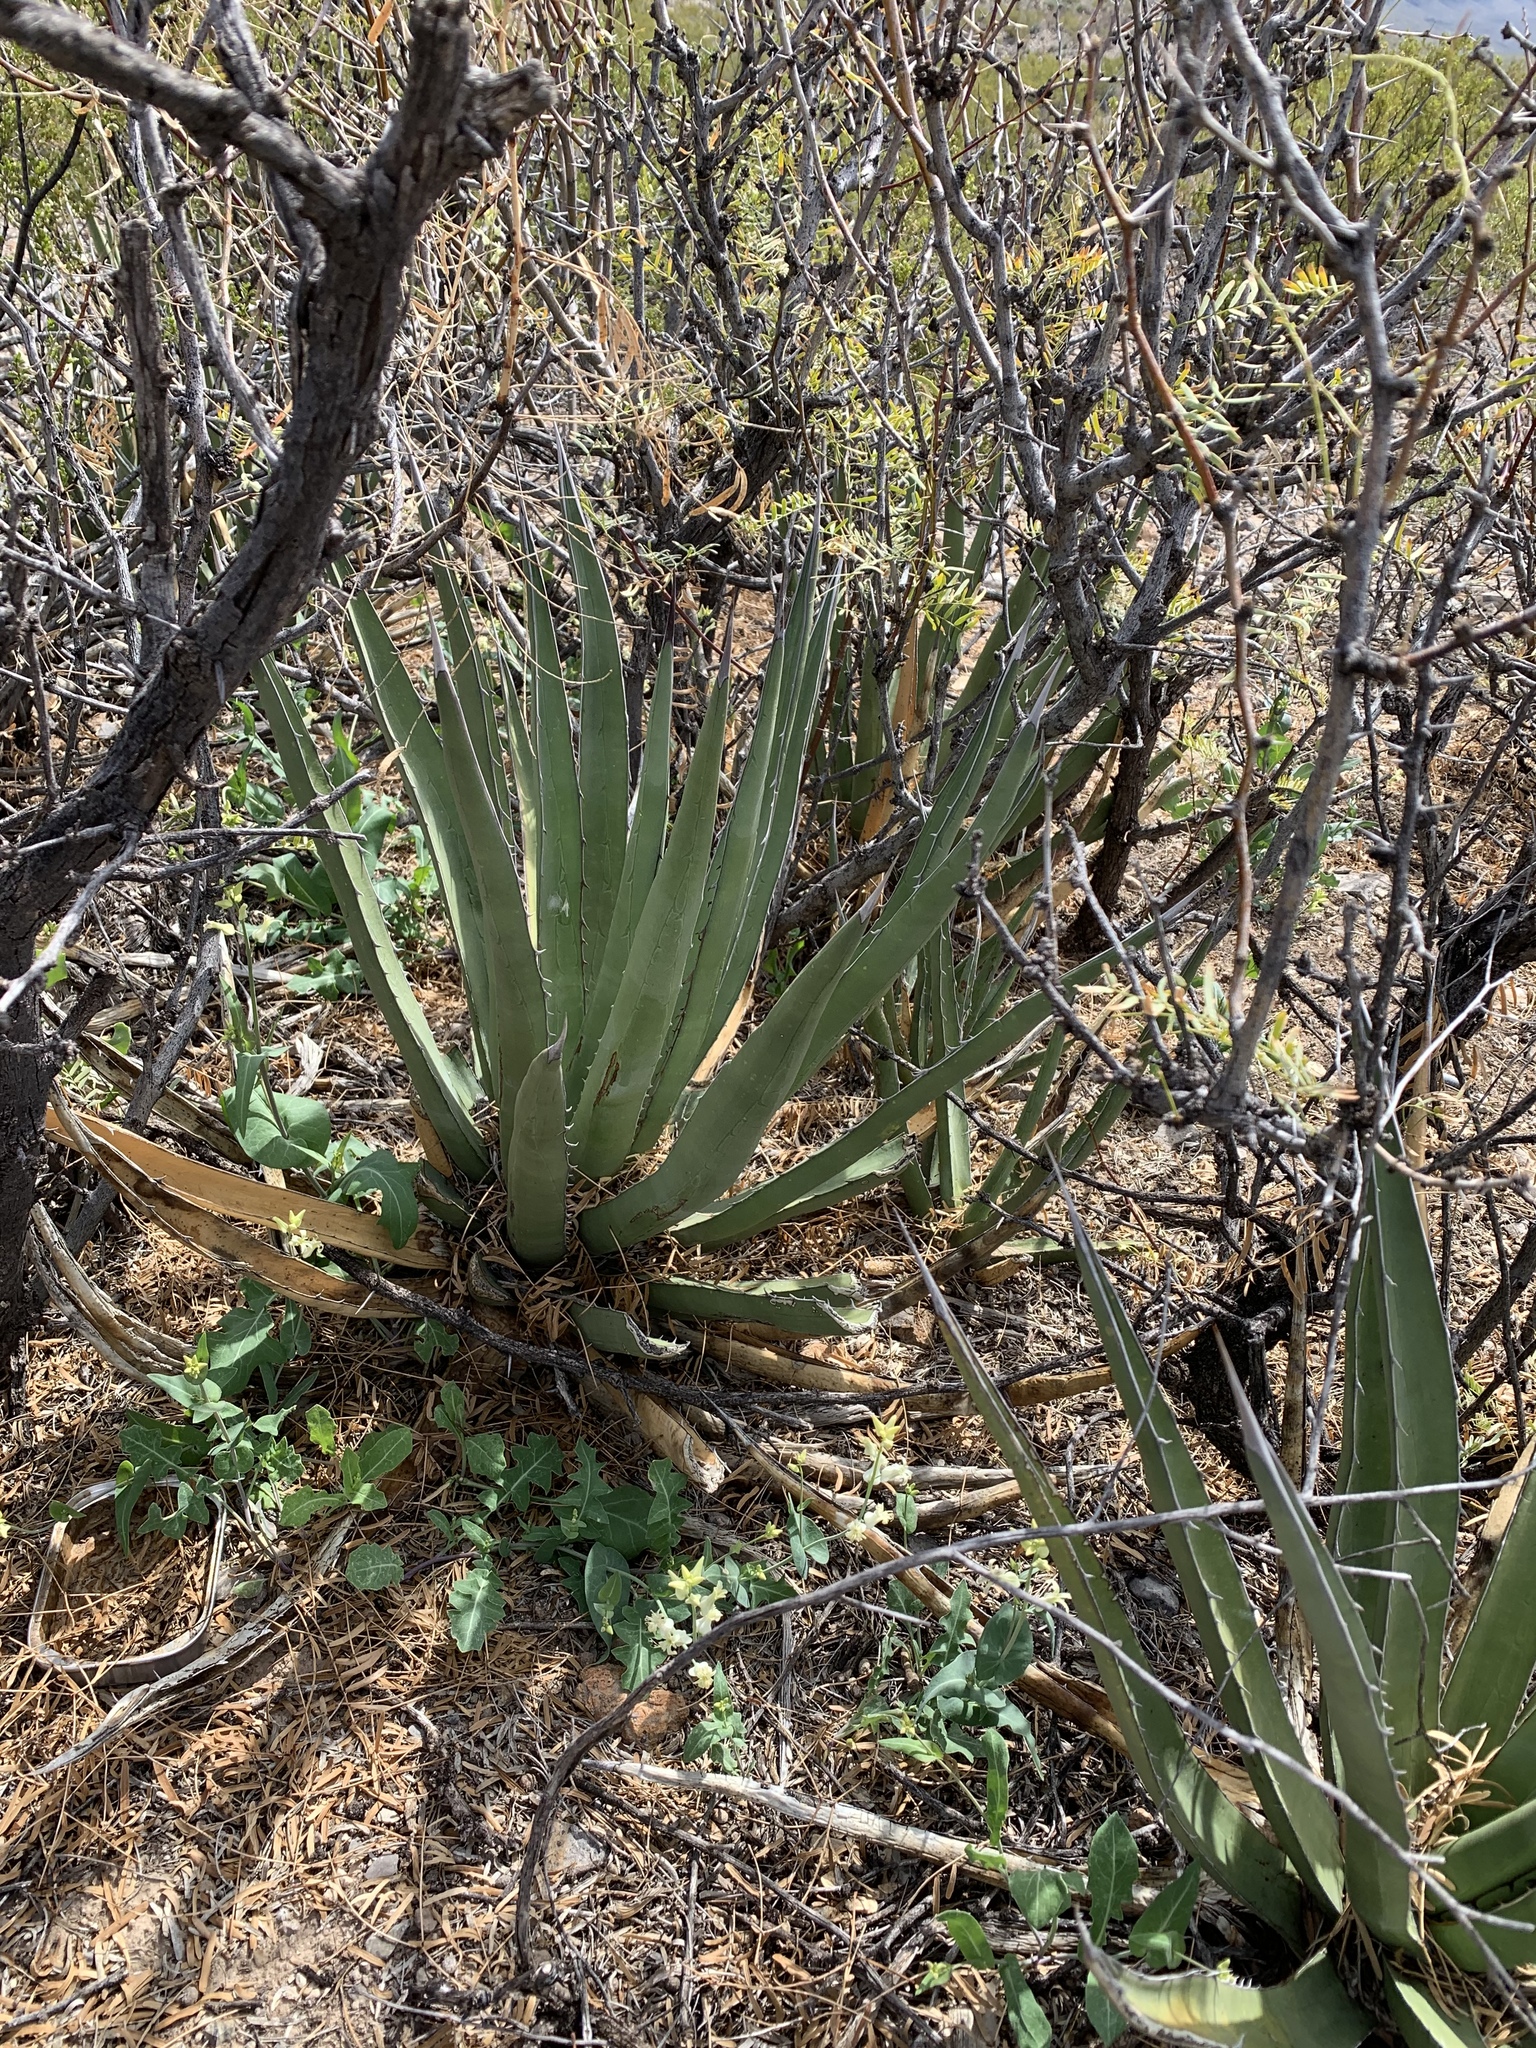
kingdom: Plantae
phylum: Tracheophyta
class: Liliopsida
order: Asparagales
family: Asparagaceae
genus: Agave
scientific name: Agave lechuguilla
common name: Lecheguilla agave
